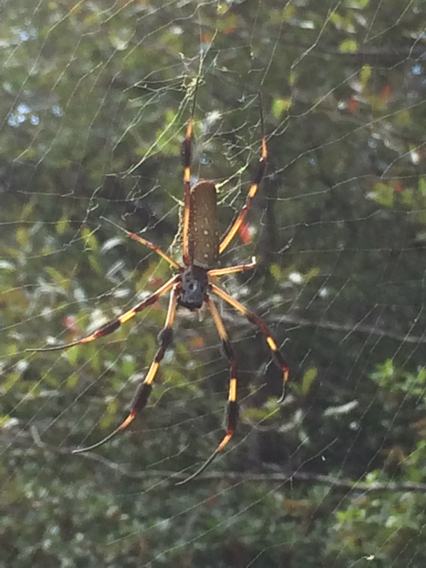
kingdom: Animalia
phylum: Arthropoda
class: Arachnida
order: Araneae
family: Araneidae
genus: Trichonephila
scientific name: Trichonephila clavipes
